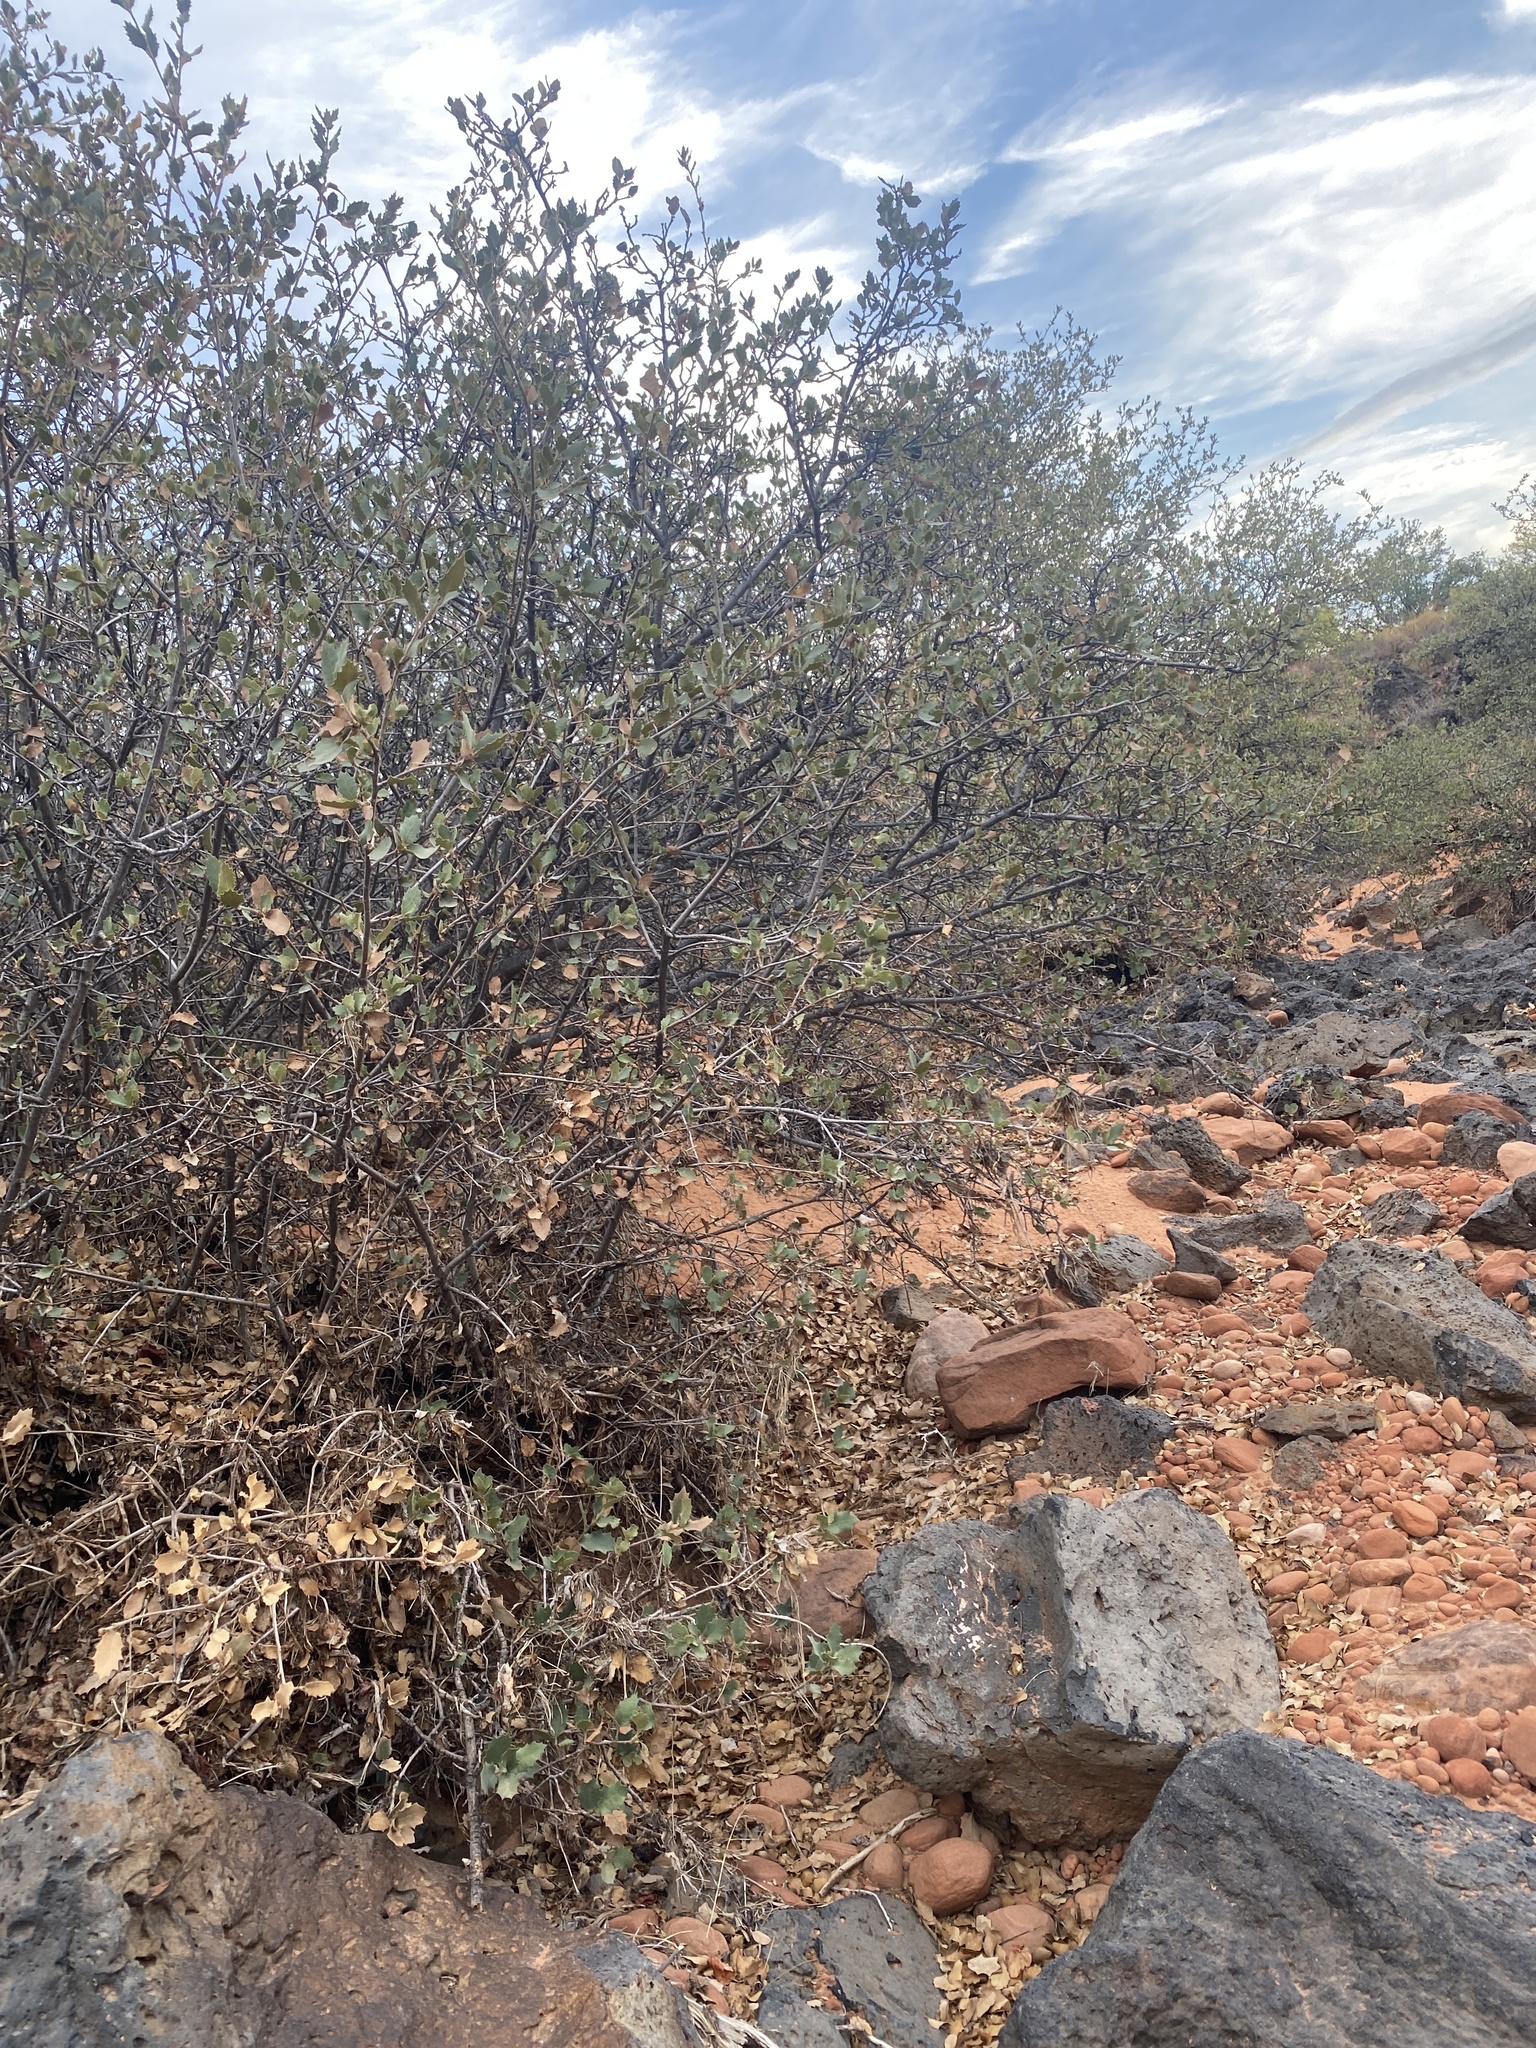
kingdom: Plantae
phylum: Tracheophyta
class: Magnoliopsida
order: Fagales
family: Fagaceae
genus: Quercus
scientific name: Quercus turbinella
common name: Sonoran scrub oak
